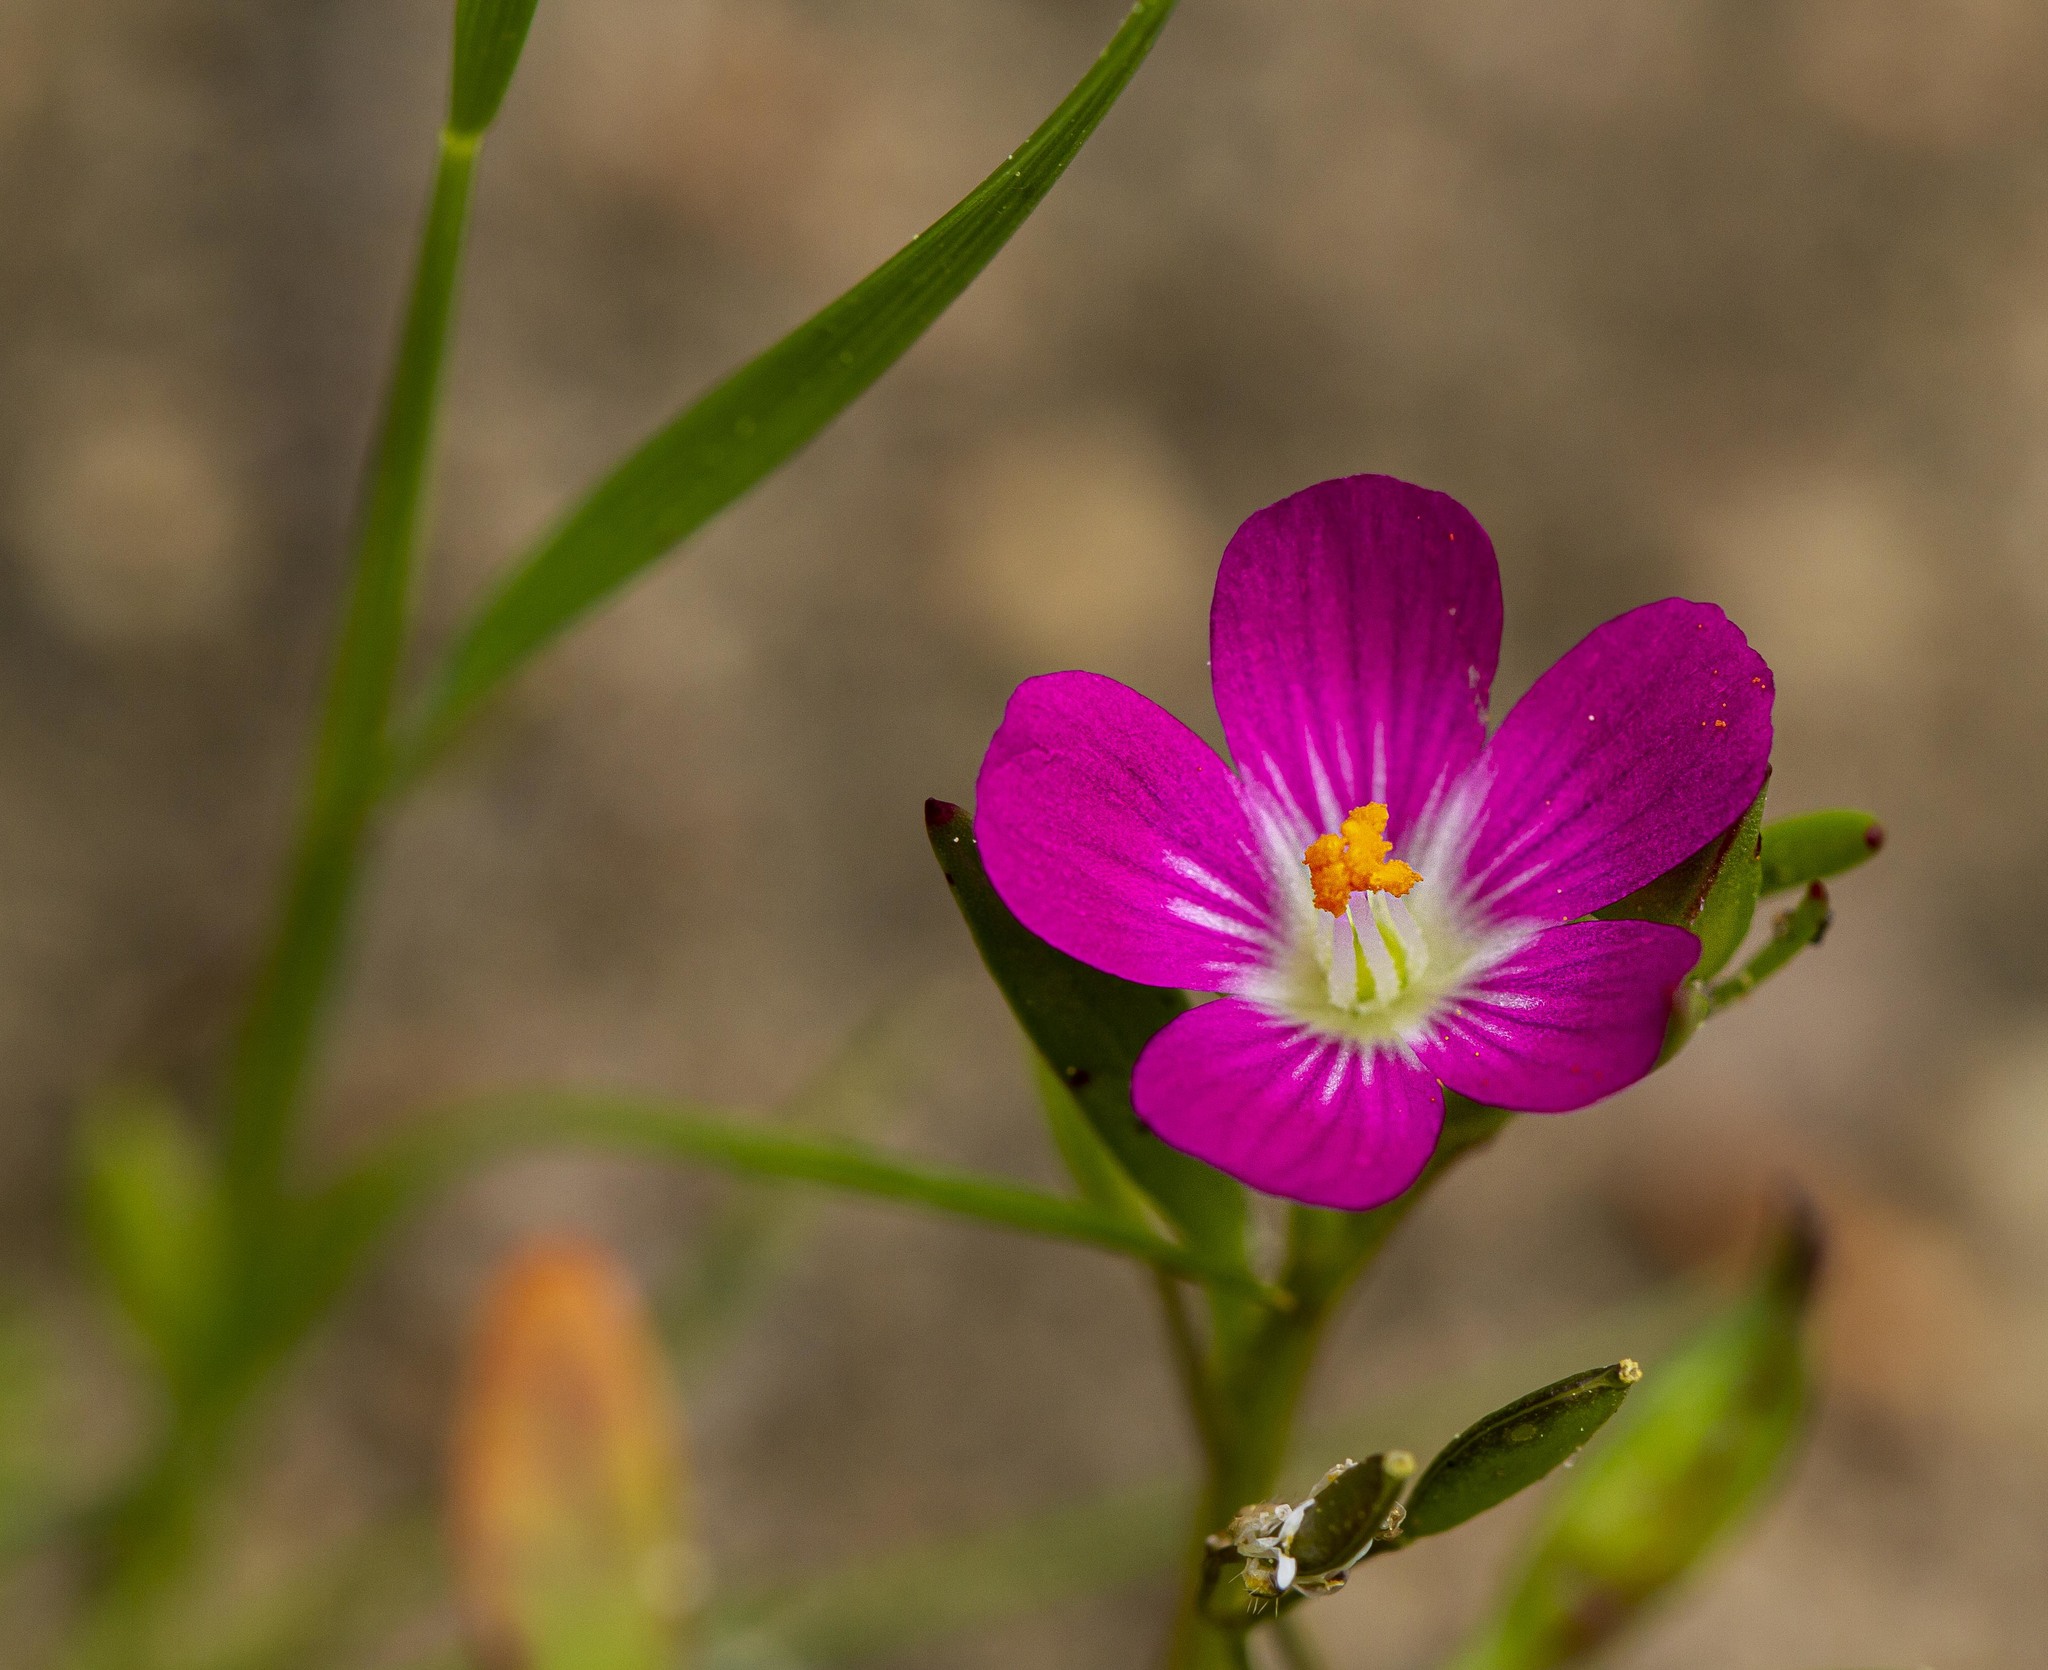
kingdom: Plantae
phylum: Tracheophyta
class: Magnoliopsida
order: Caryophyllales
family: Montiaceae
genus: Calandrinia
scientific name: Calandrinia menziesii
